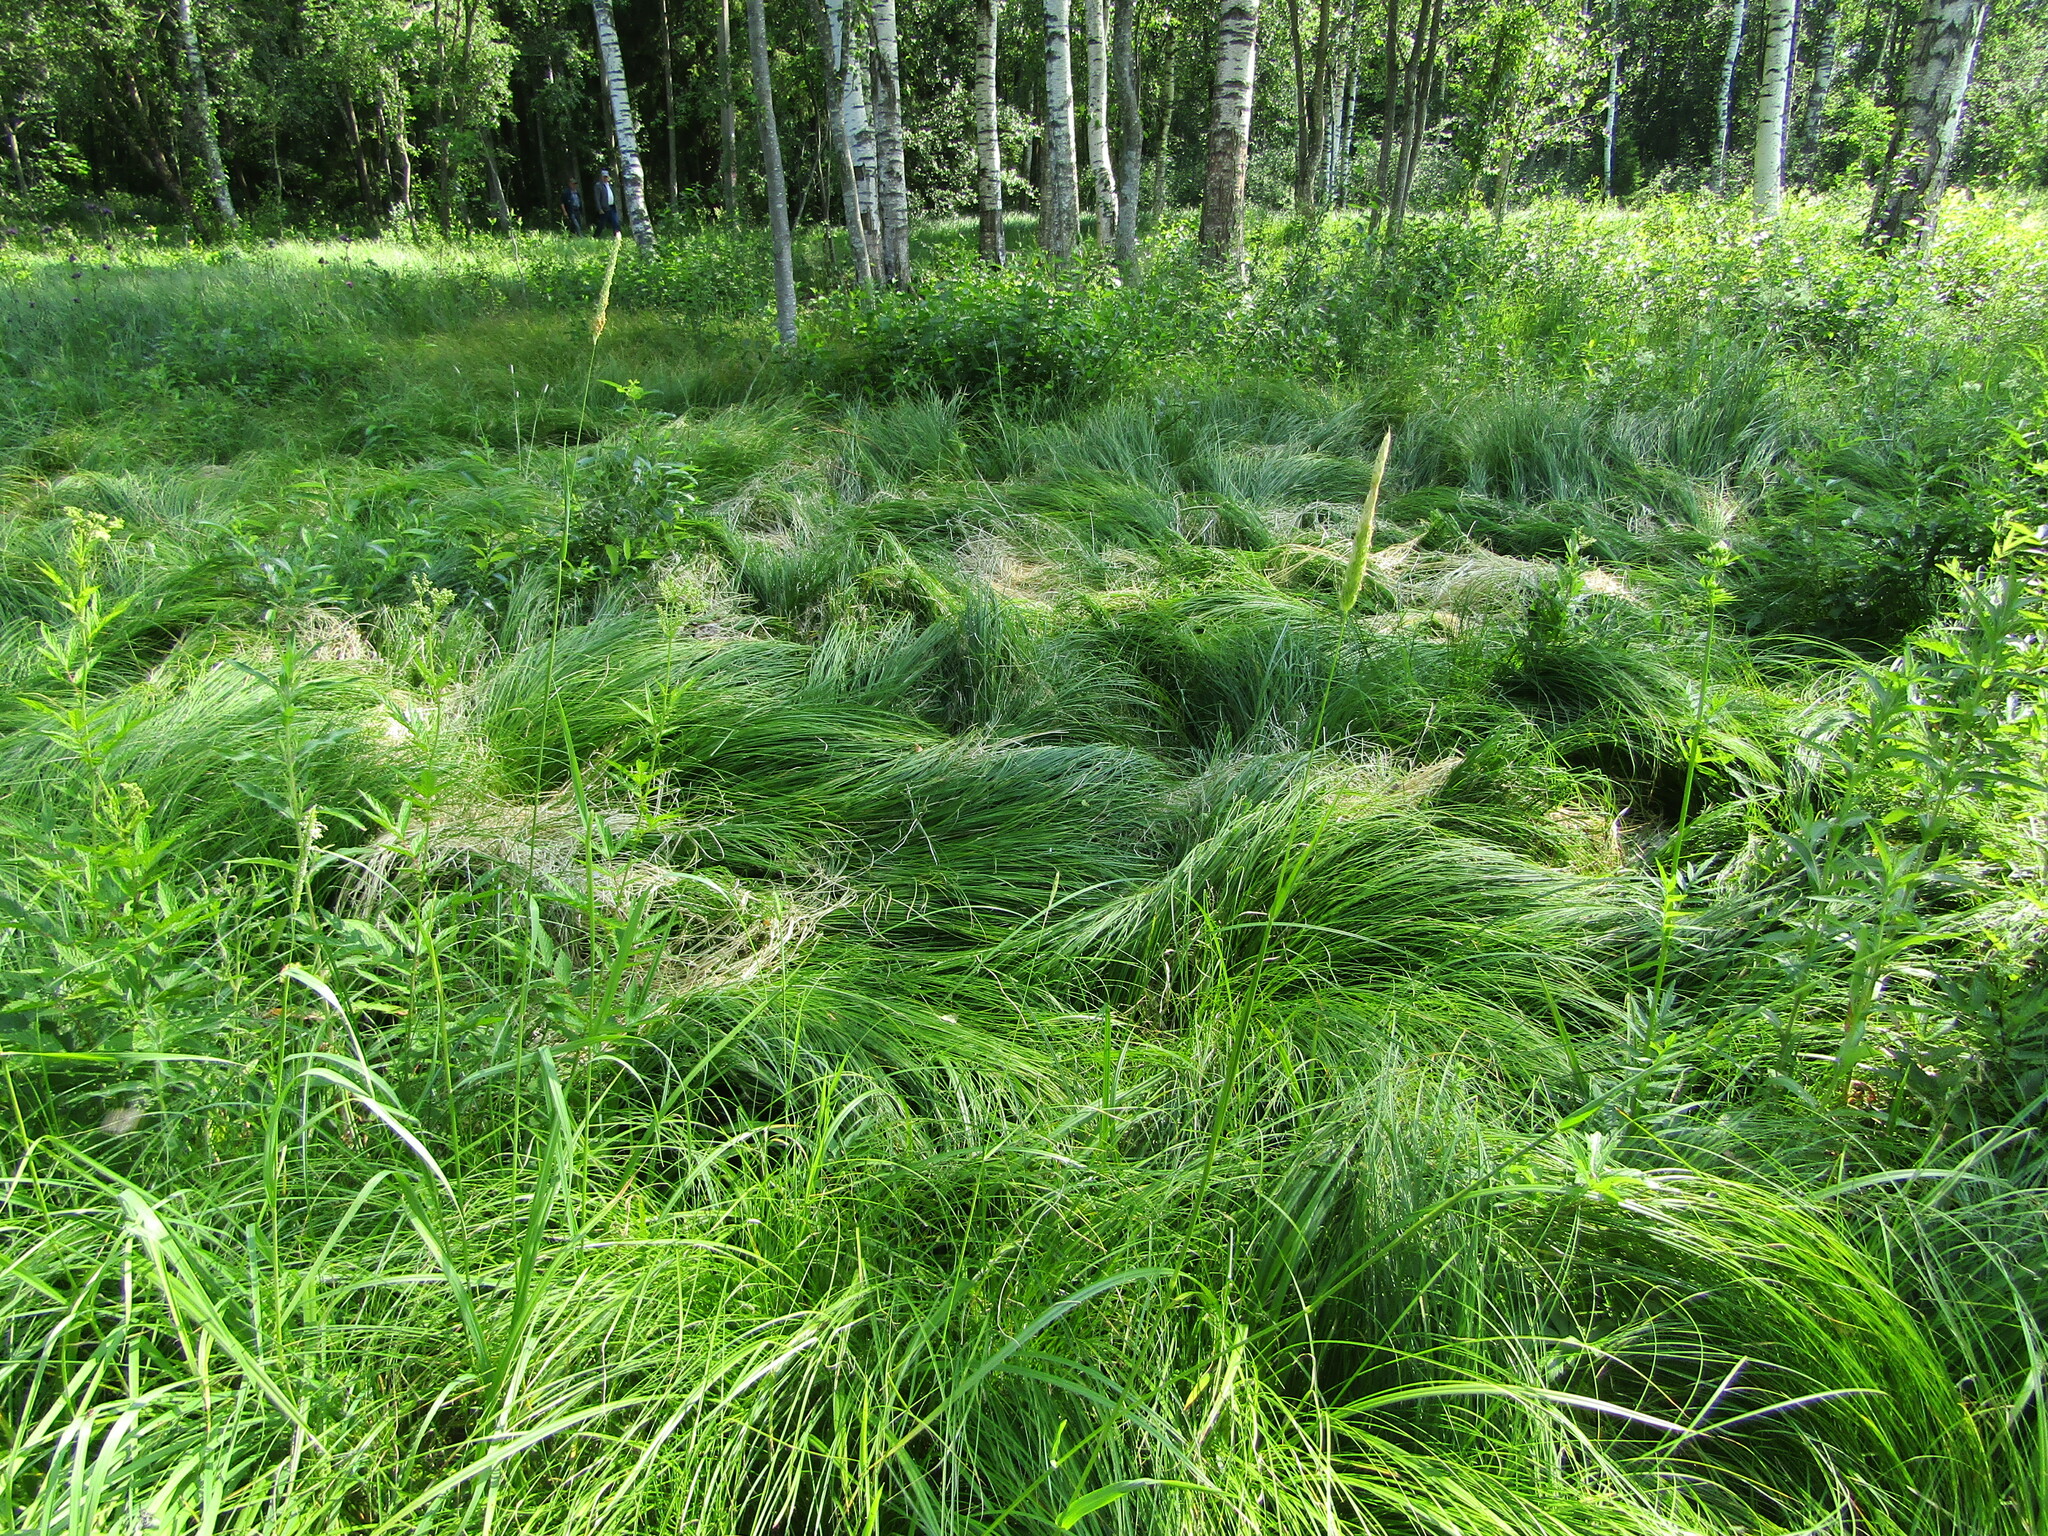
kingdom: Plantae
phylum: Tracheophyta
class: Liliopsida
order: Poales
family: Cyperaceae
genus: Carex
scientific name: Carex brizoides
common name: Quaking-grass sedge
